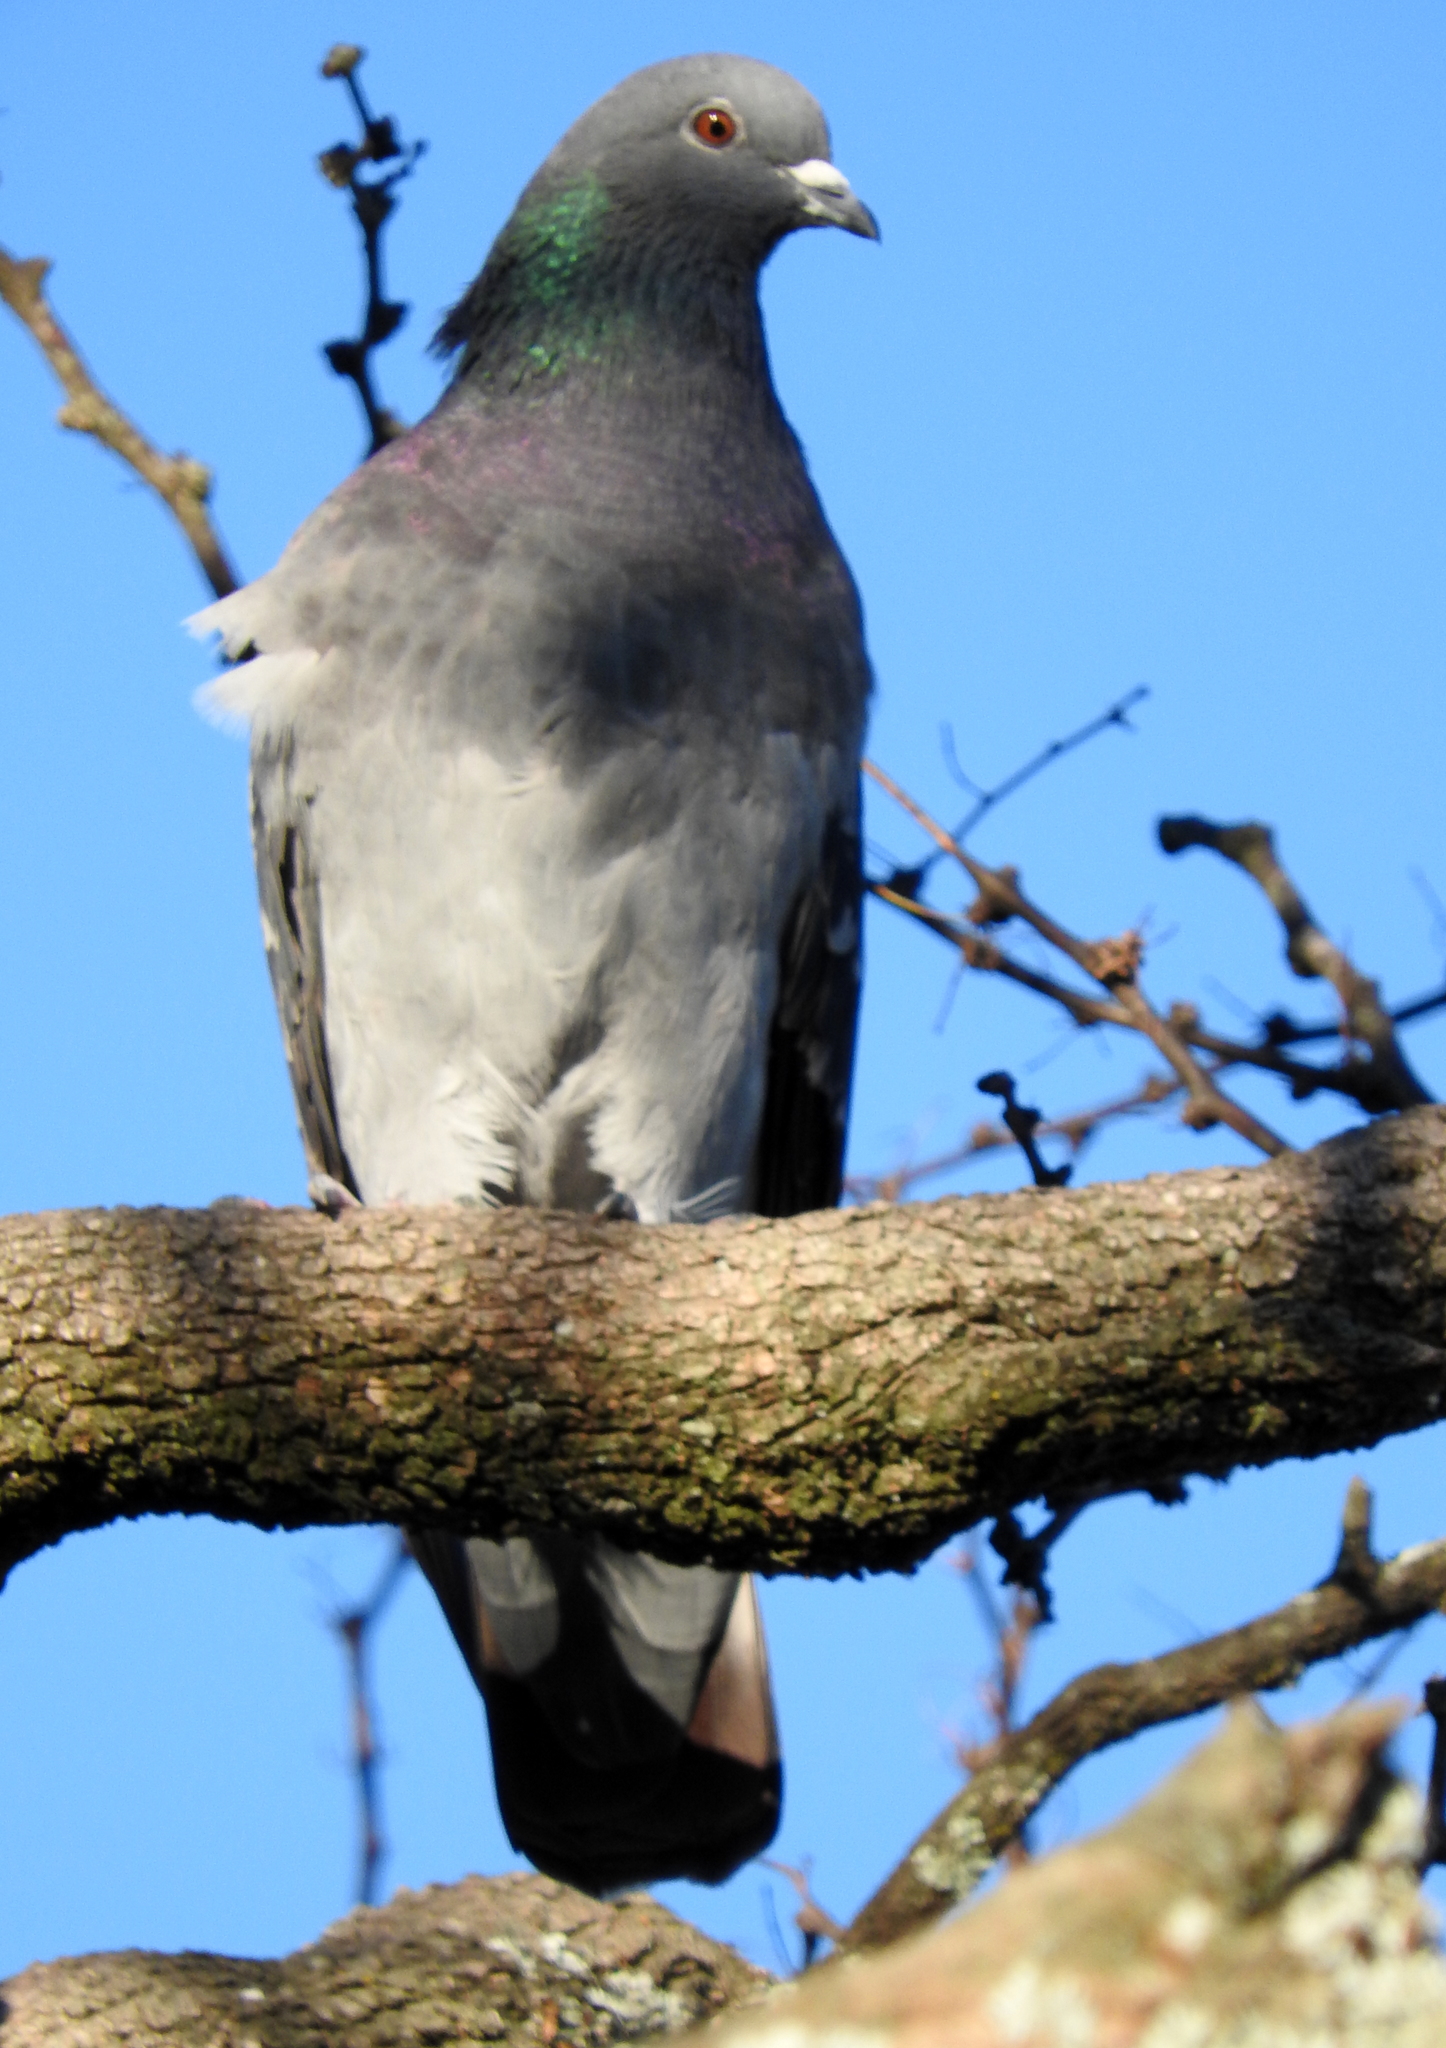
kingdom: Animalia
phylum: Chordata
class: Aves
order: Columbiformes
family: Columbidae
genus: Columba
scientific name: Columba livia
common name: Rock pigeon
